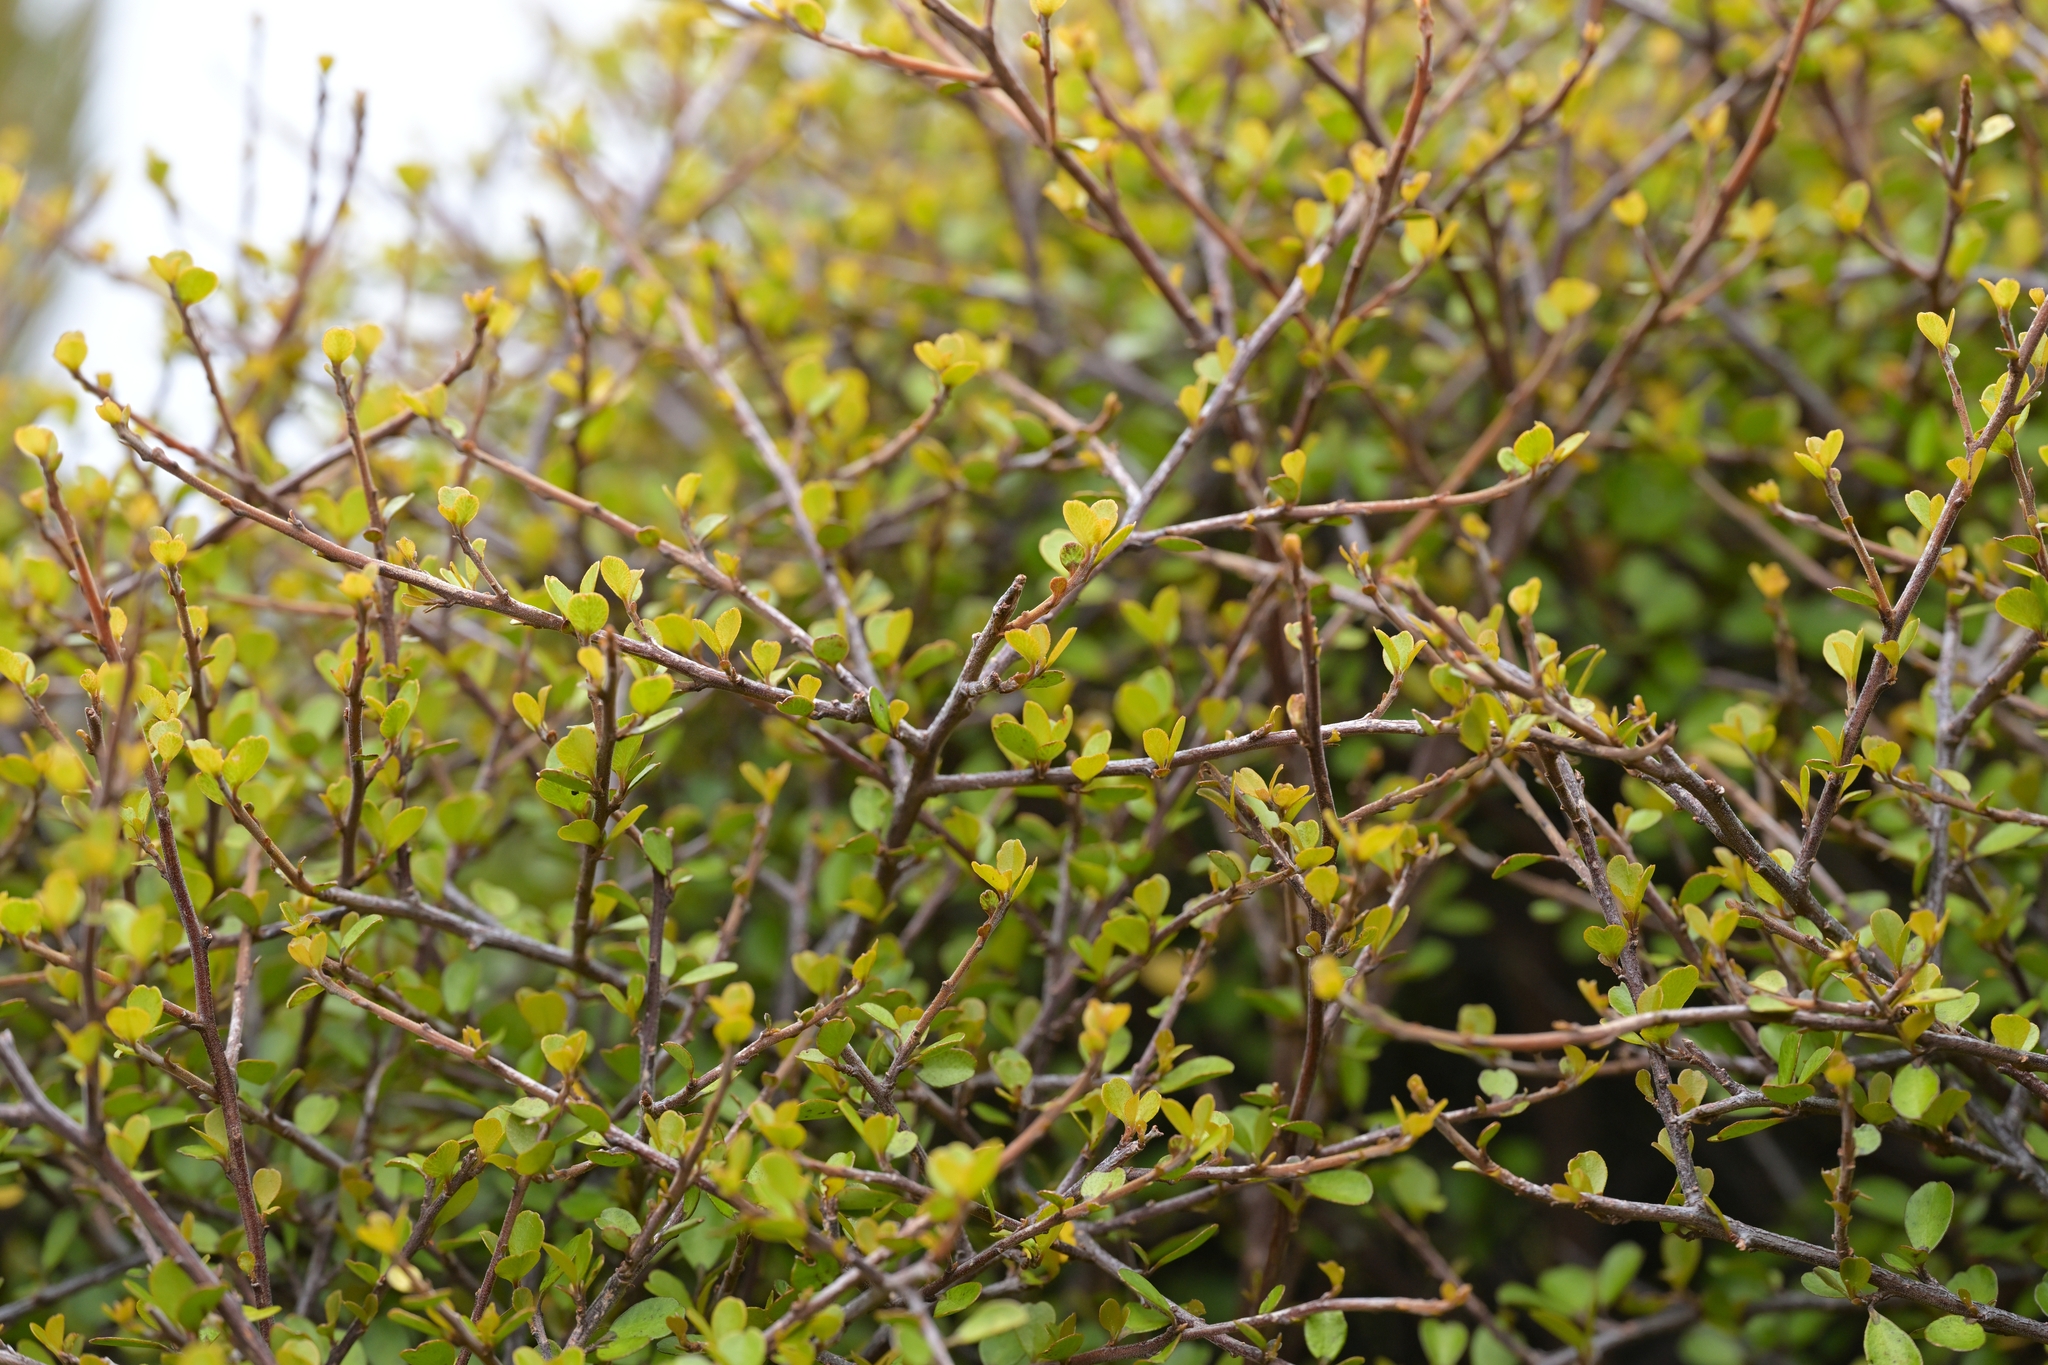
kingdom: Plantae
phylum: Tracheophyta
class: Magnoliopsida
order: Ericales
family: Primulaceae
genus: Myrsine
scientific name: Myrsine divaricata
